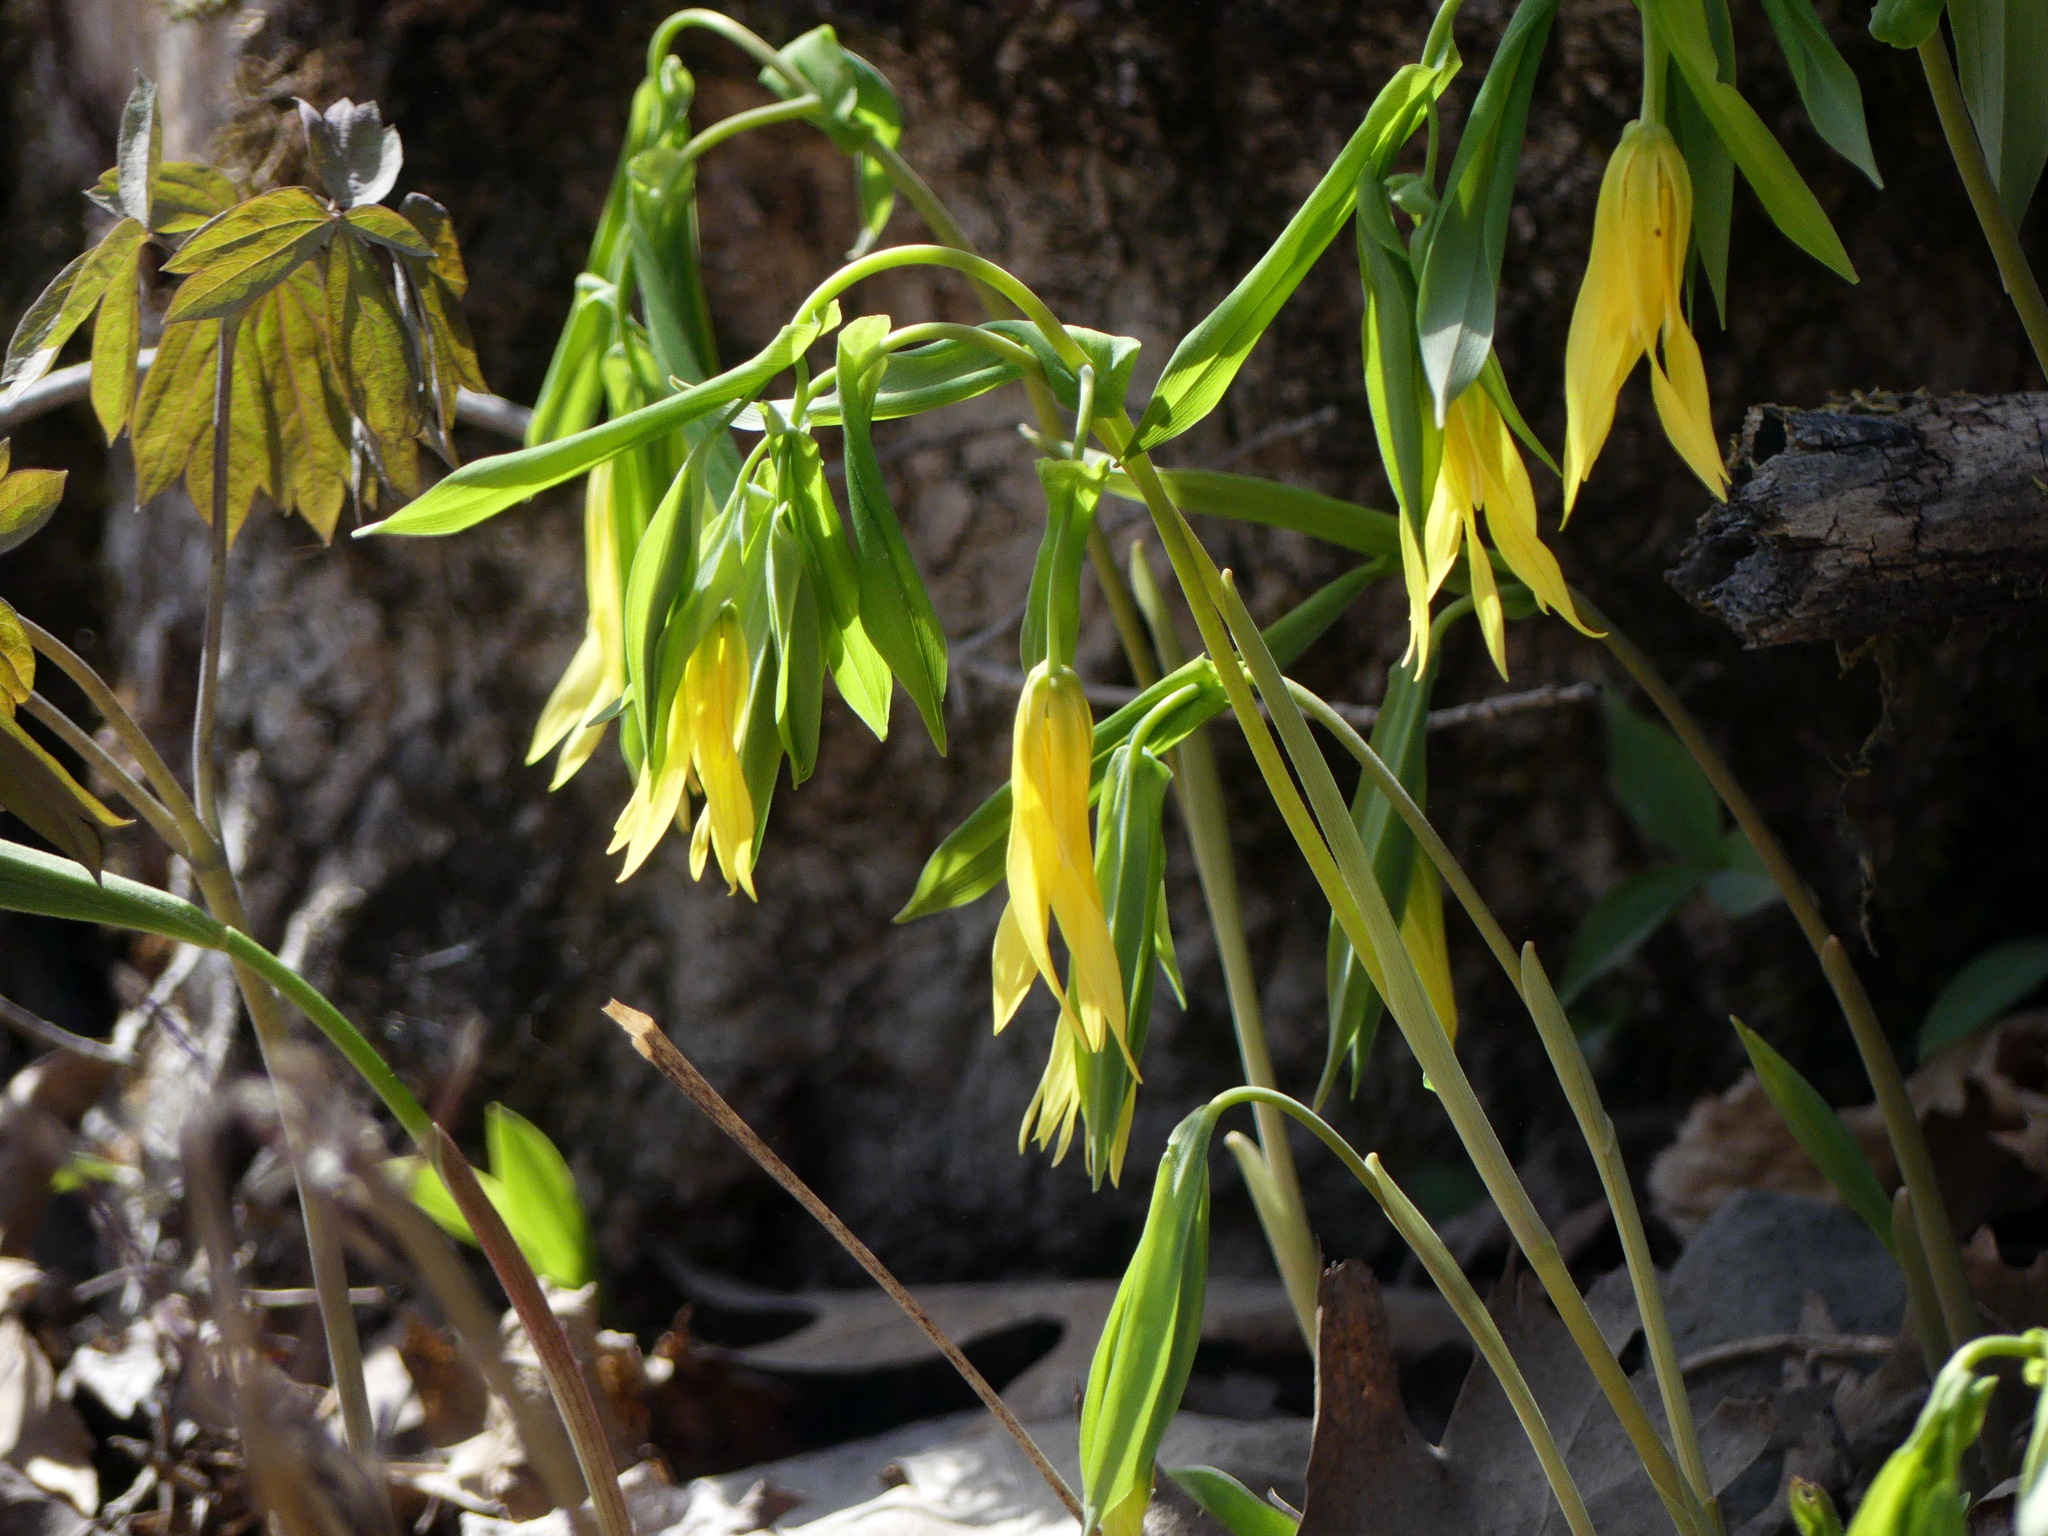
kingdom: Plantae
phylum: Tracheophyta
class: Liliopsida
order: Liliales
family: Colchicaceae
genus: Uvularia
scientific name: Uvularia grandiflora
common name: Bellwort
